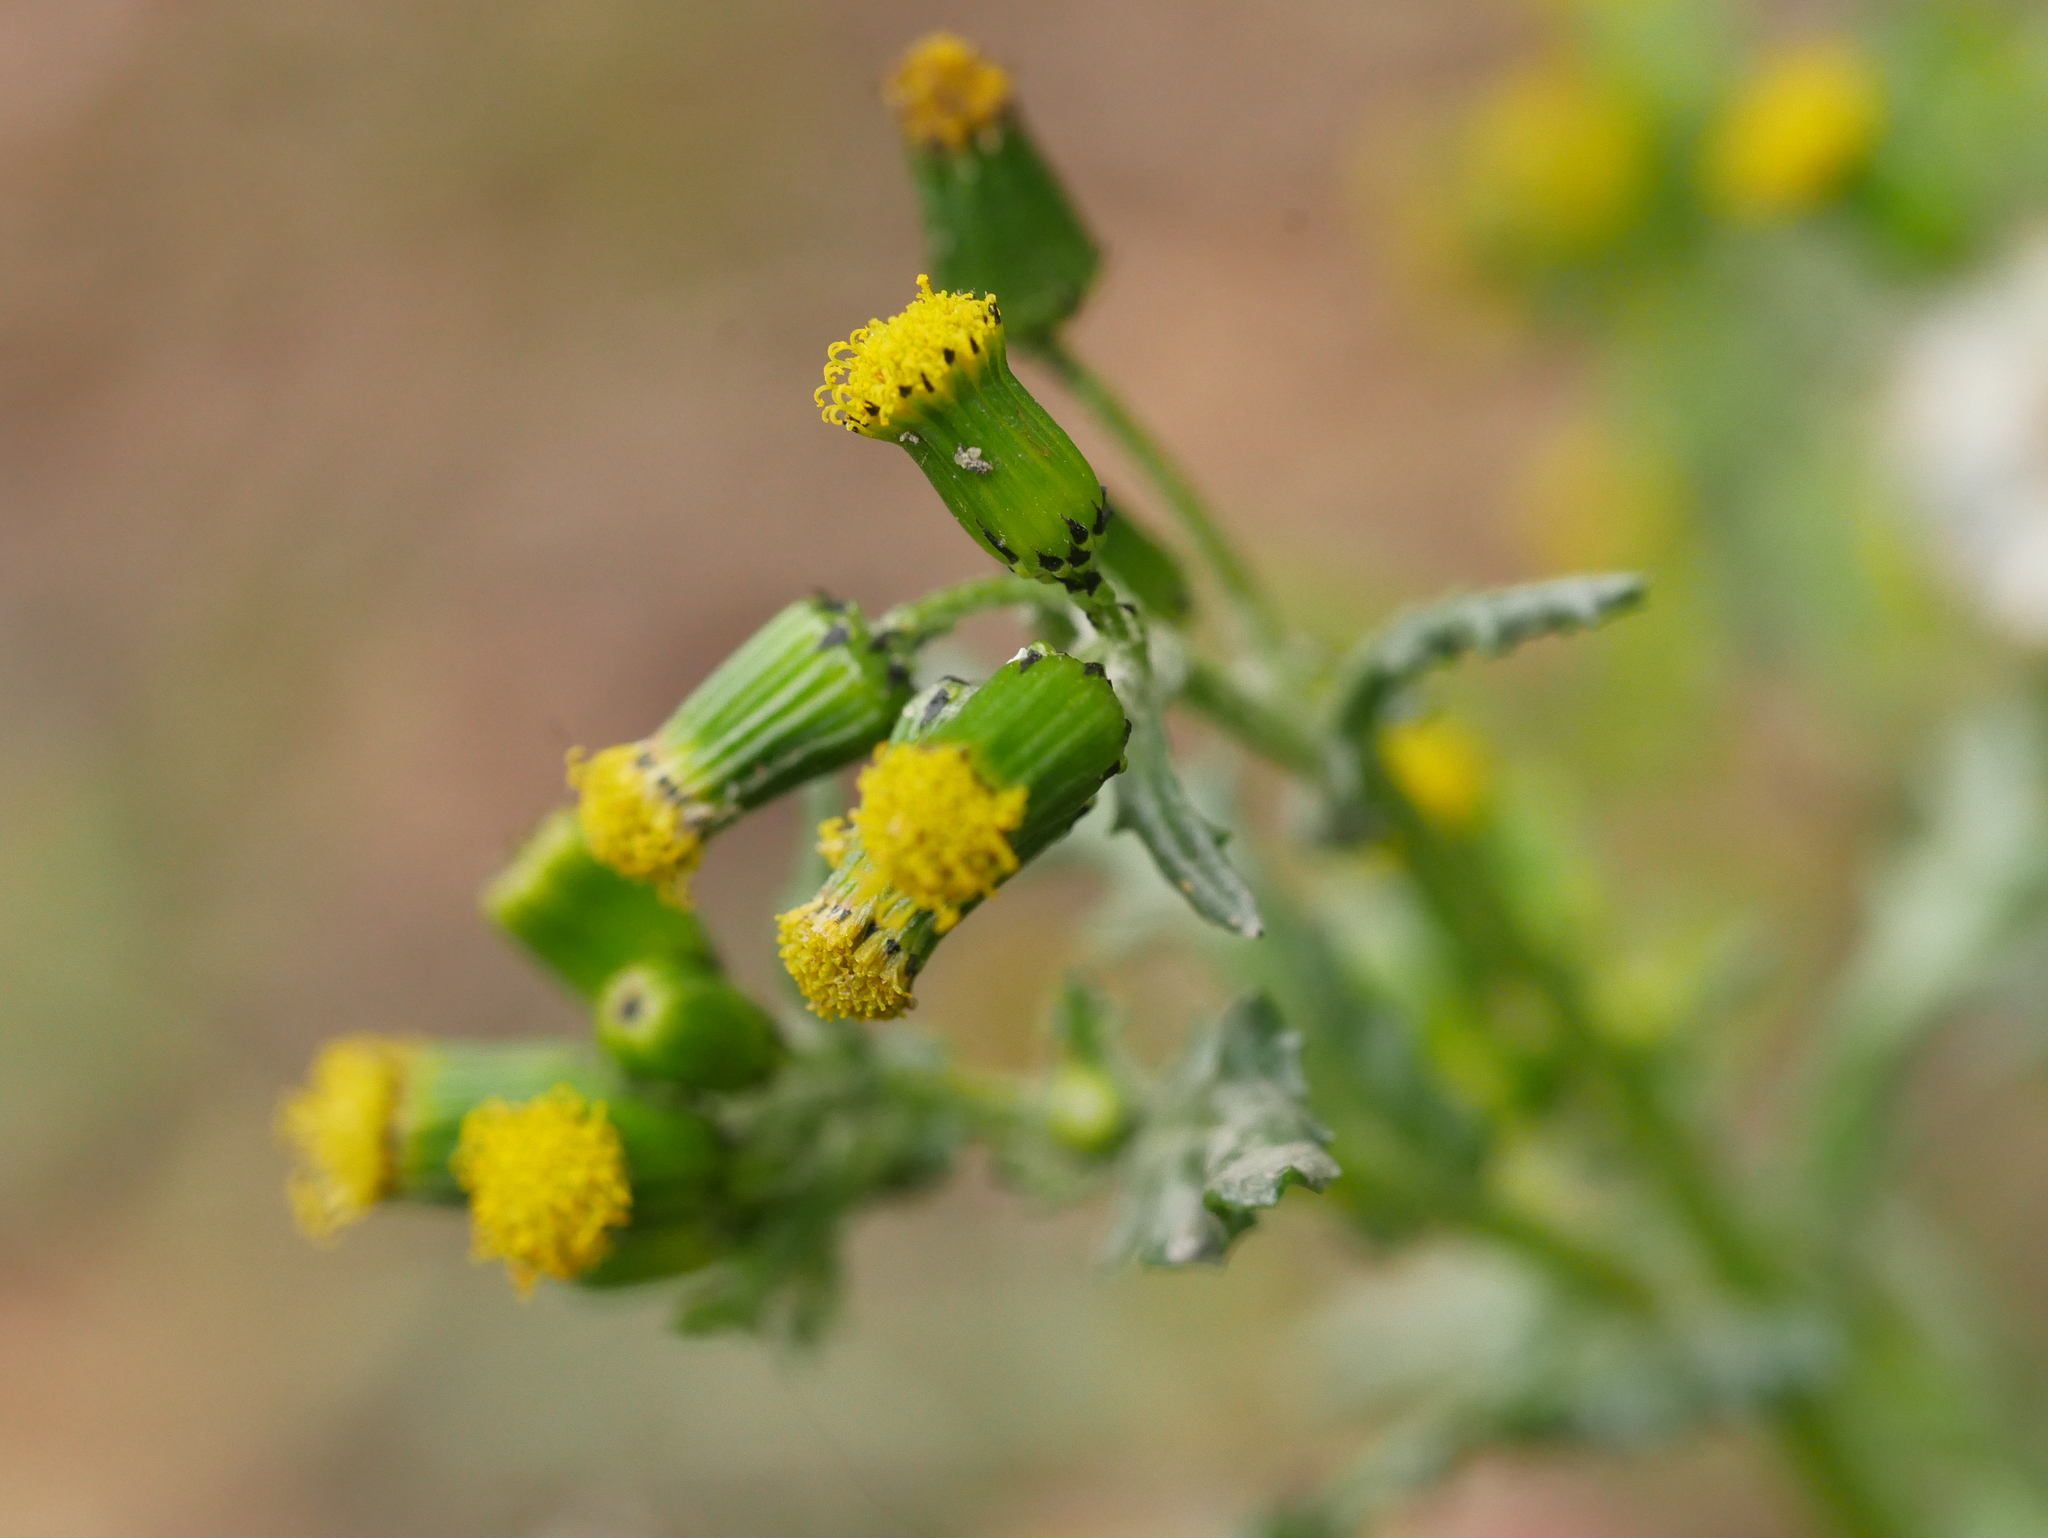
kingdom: Plantae
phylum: Tracheophyta
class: Magnoliopsida
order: Asterales
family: Asteraceae
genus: Senecio
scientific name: Senecio vulgaris
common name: Old-man-in-the-spring
